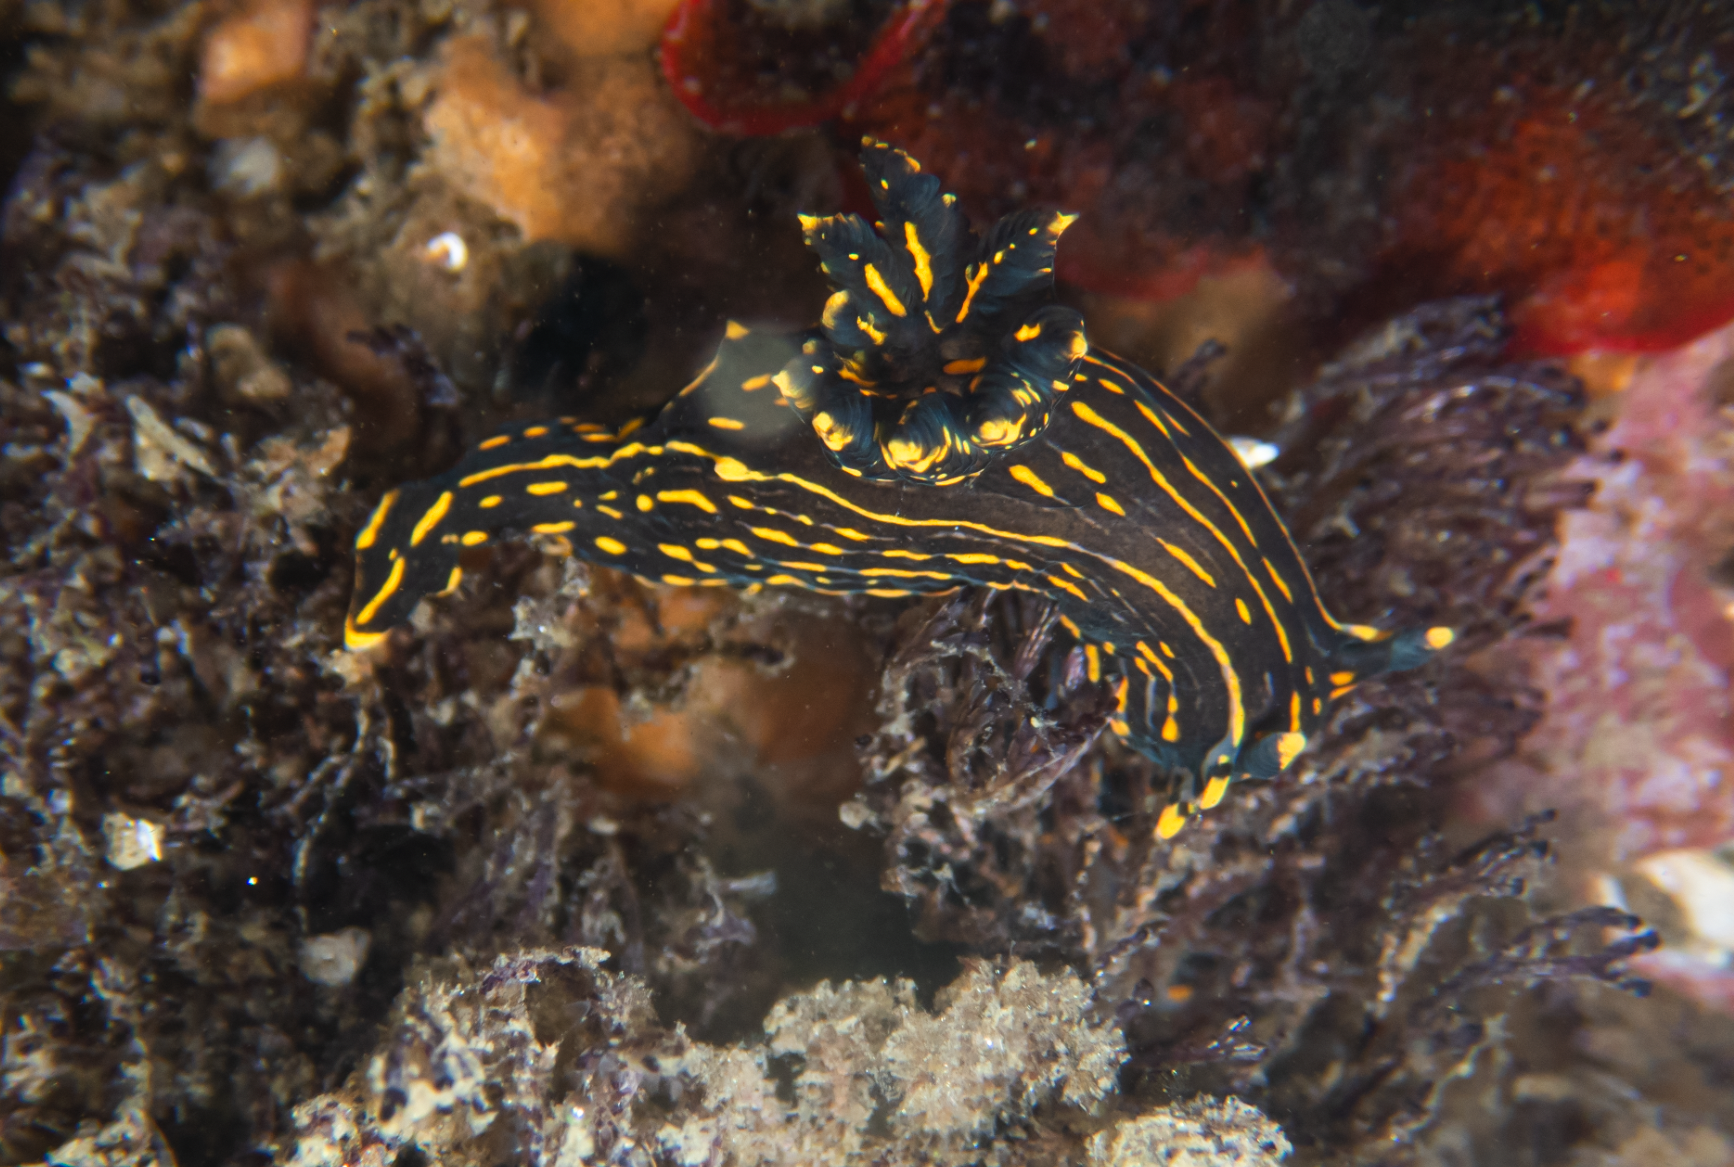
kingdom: Animalia
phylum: Mollusca
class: Gastropoda
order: Nudibranchia
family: Polyceridae
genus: Polycera
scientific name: Polycera atra
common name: Orange-spike polycera
